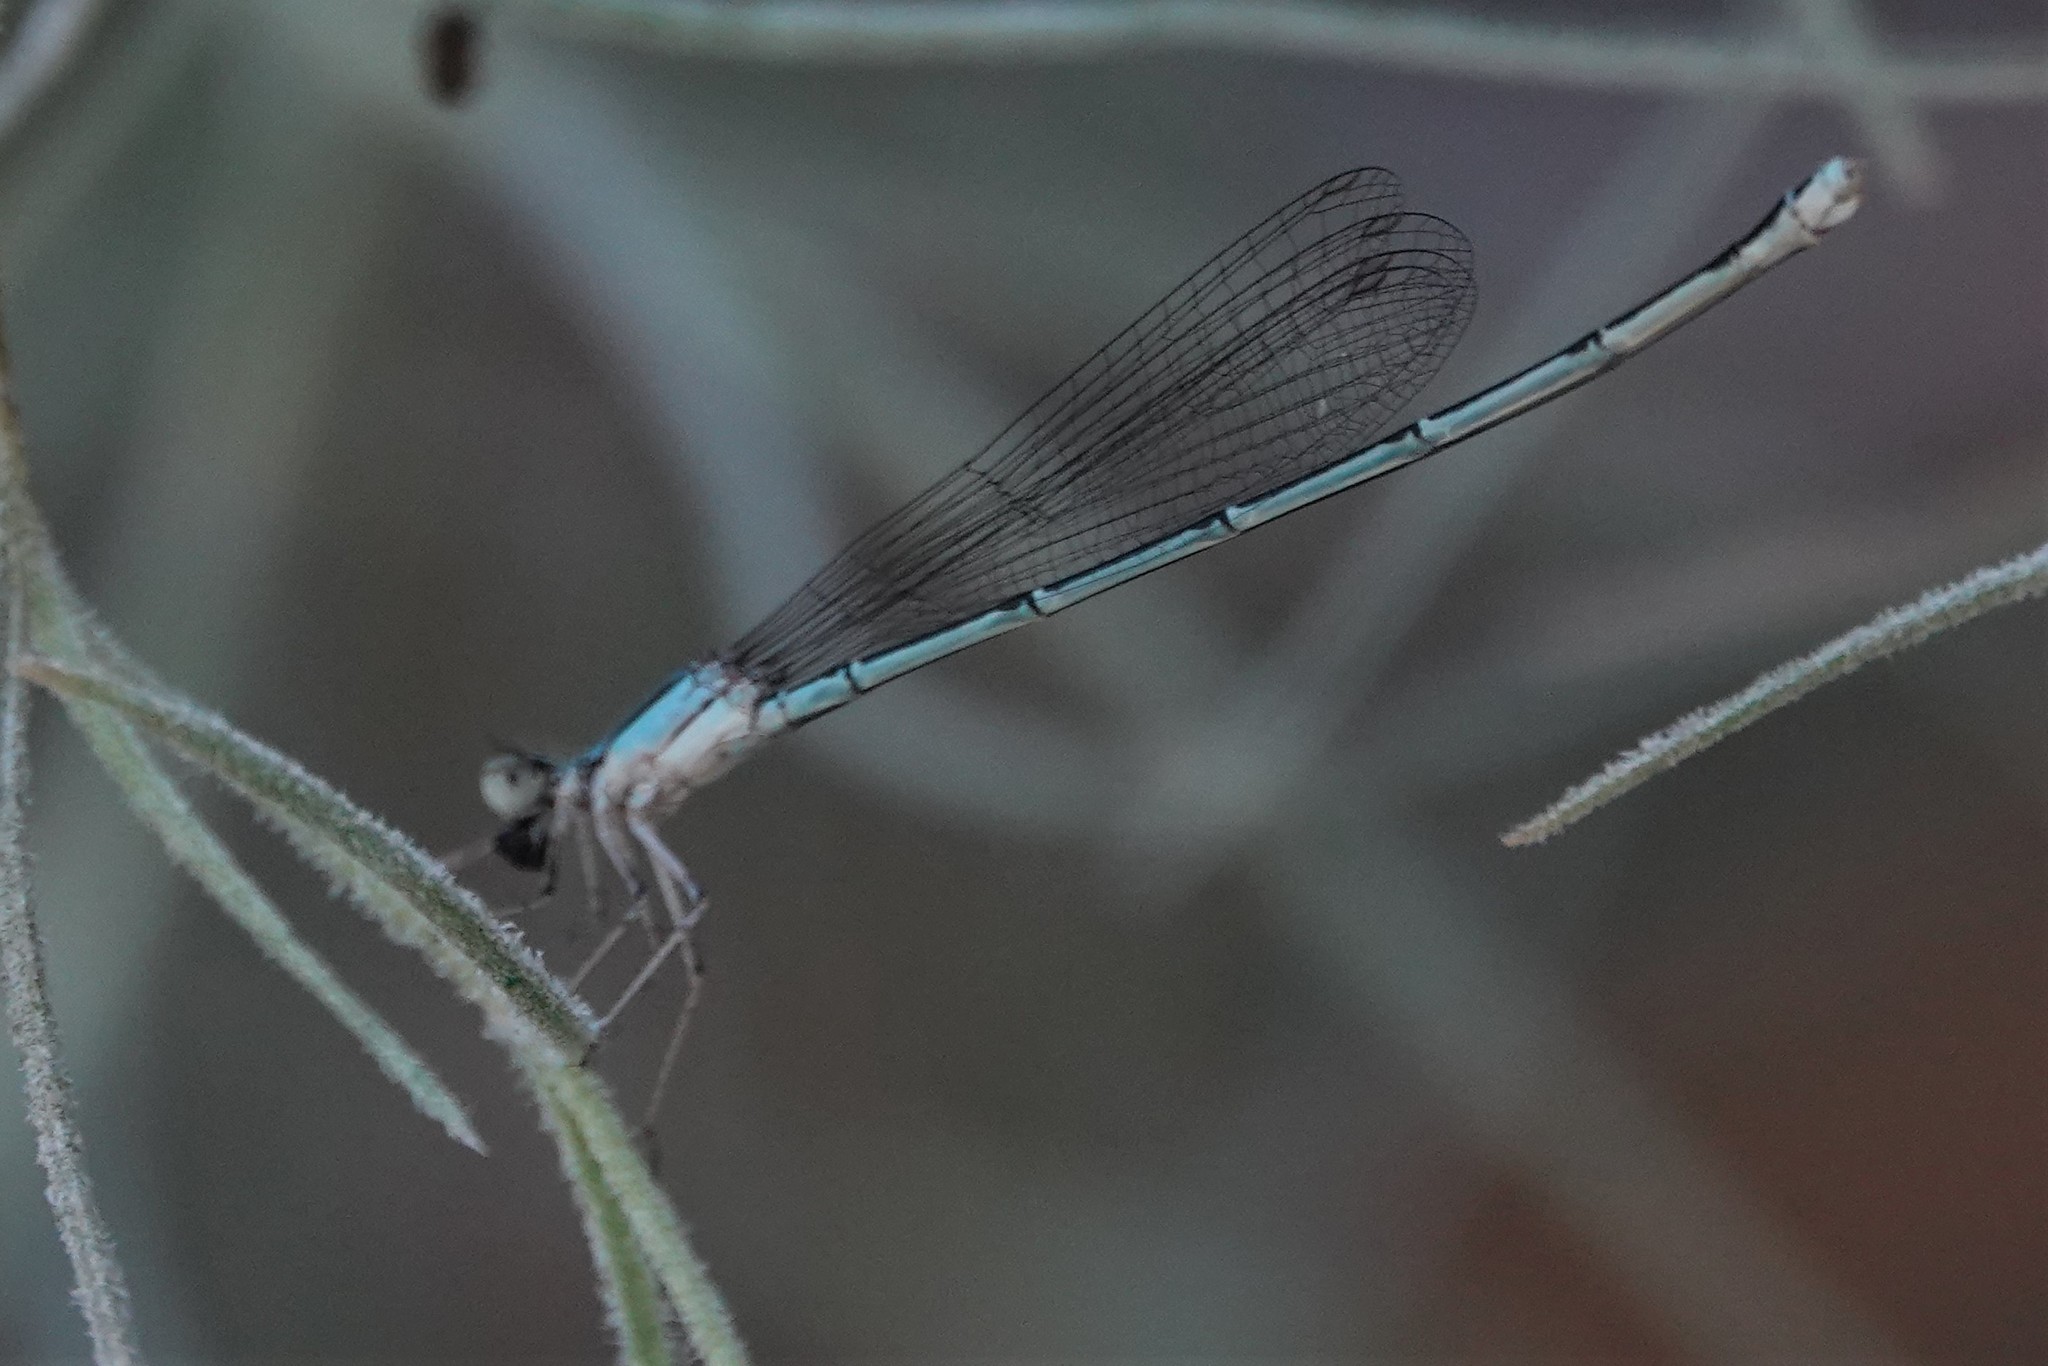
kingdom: Animalia
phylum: Arthropoda
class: Insecta
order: Odonata
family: Coenagrionidae
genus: Enallagma
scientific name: Enallagma pollutum
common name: Florida bluet
